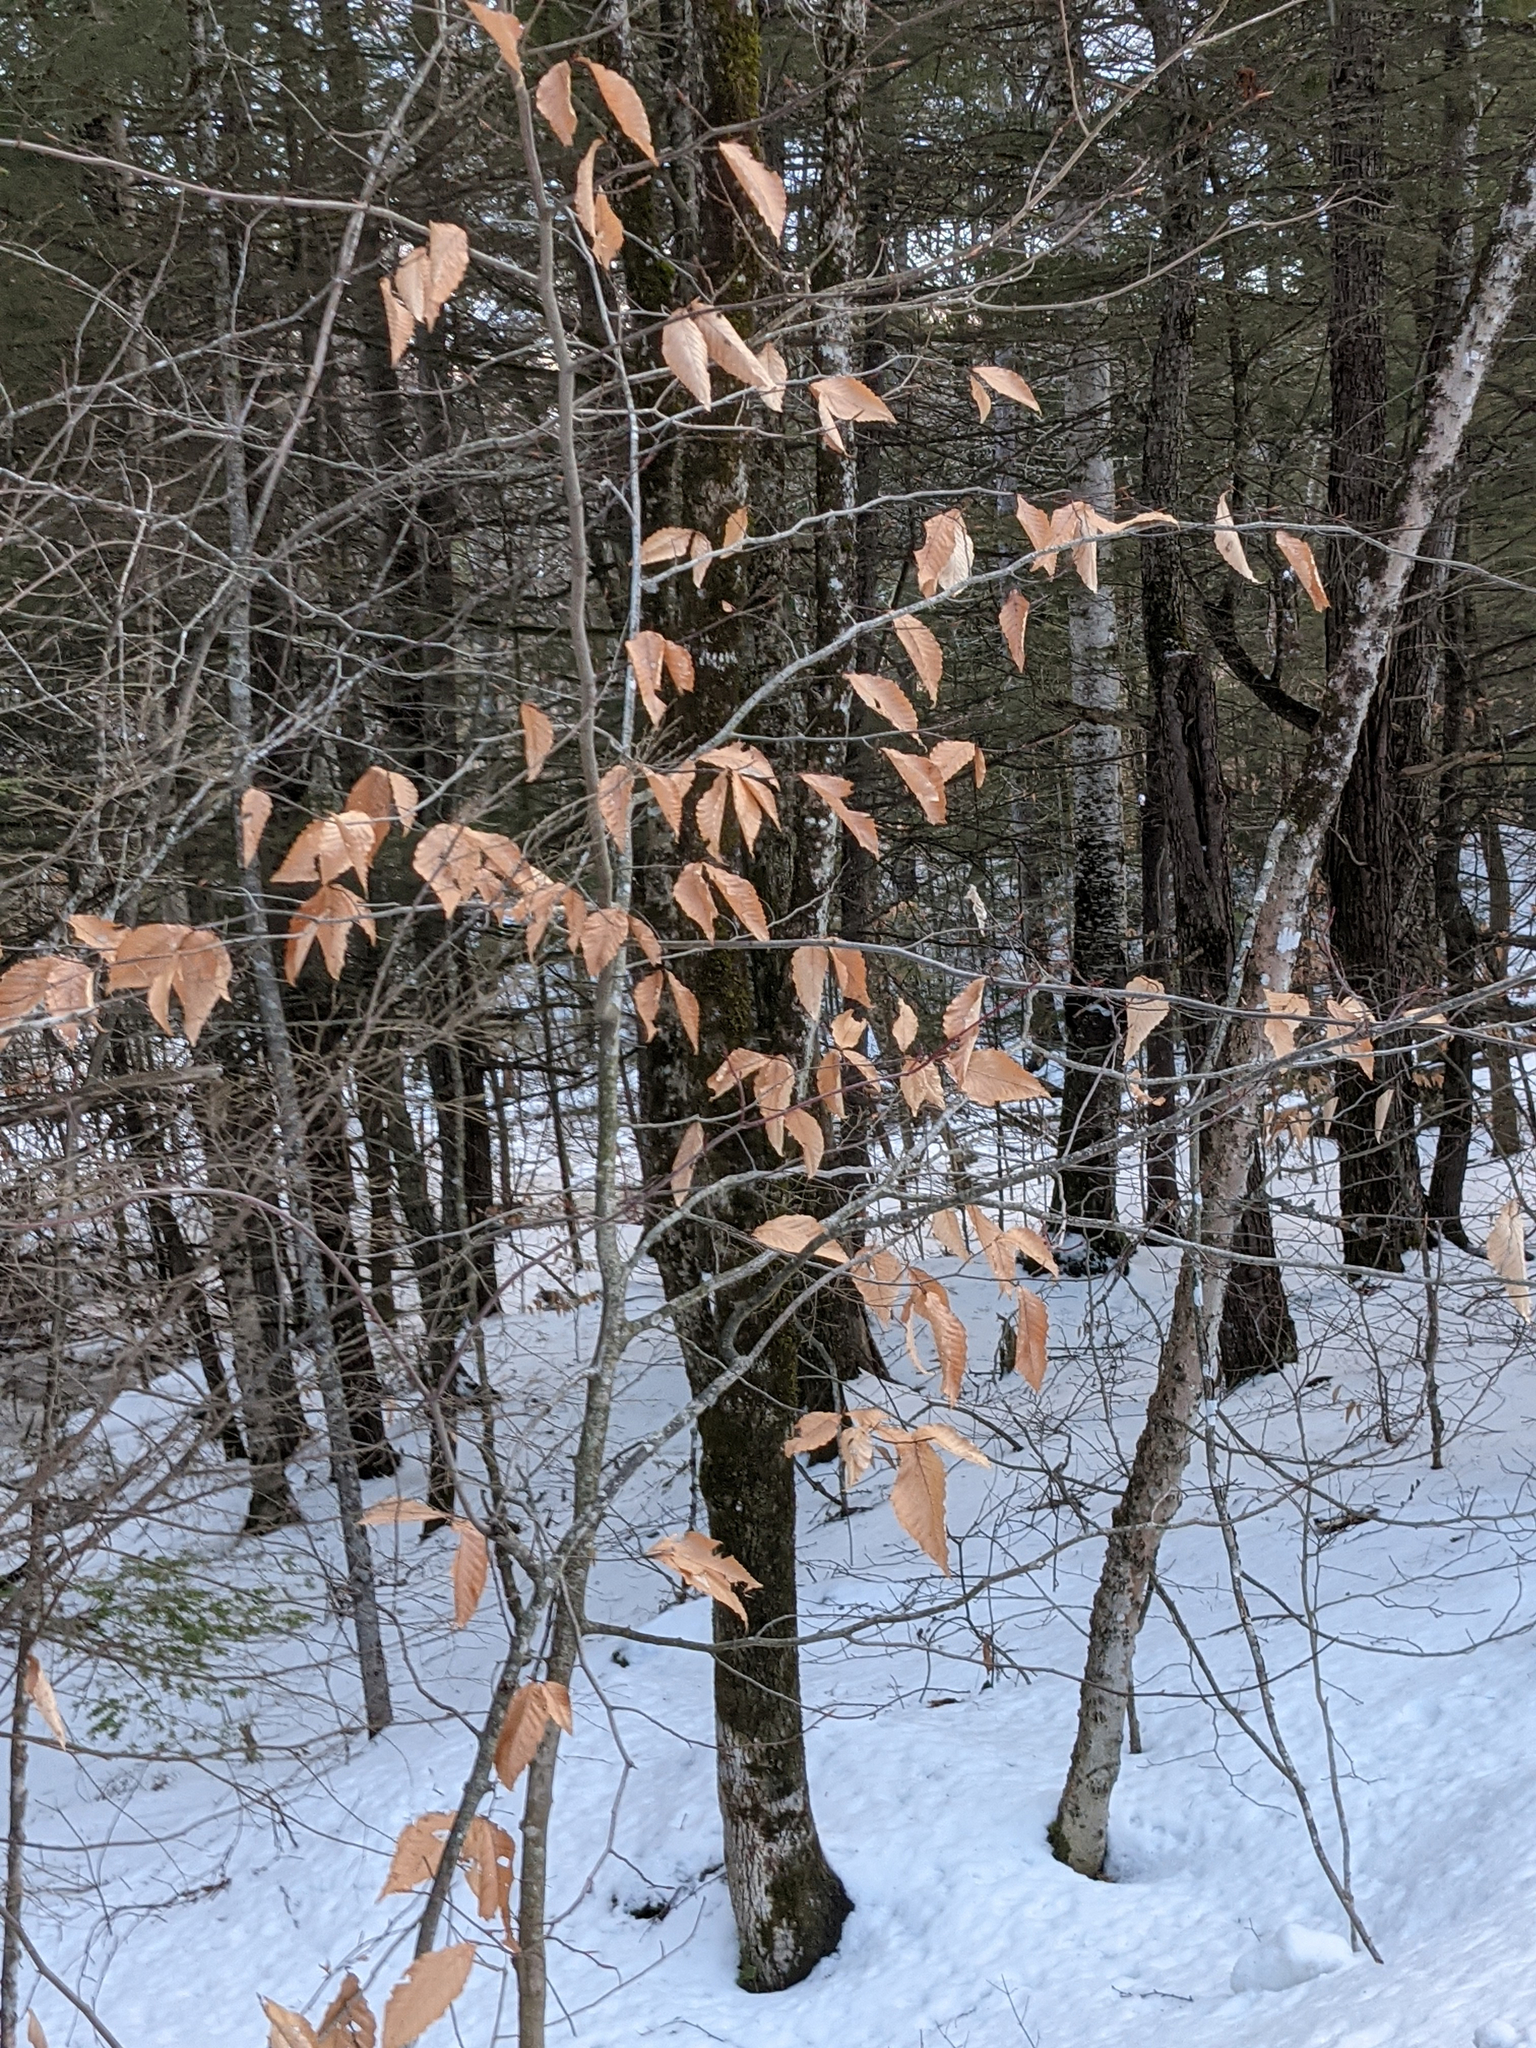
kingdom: Plantae
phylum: Tracheophyta
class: Magnoliopsida
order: Fagales
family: Fagaceae
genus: Fagus
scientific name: Fagus grandifolia
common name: American beech
